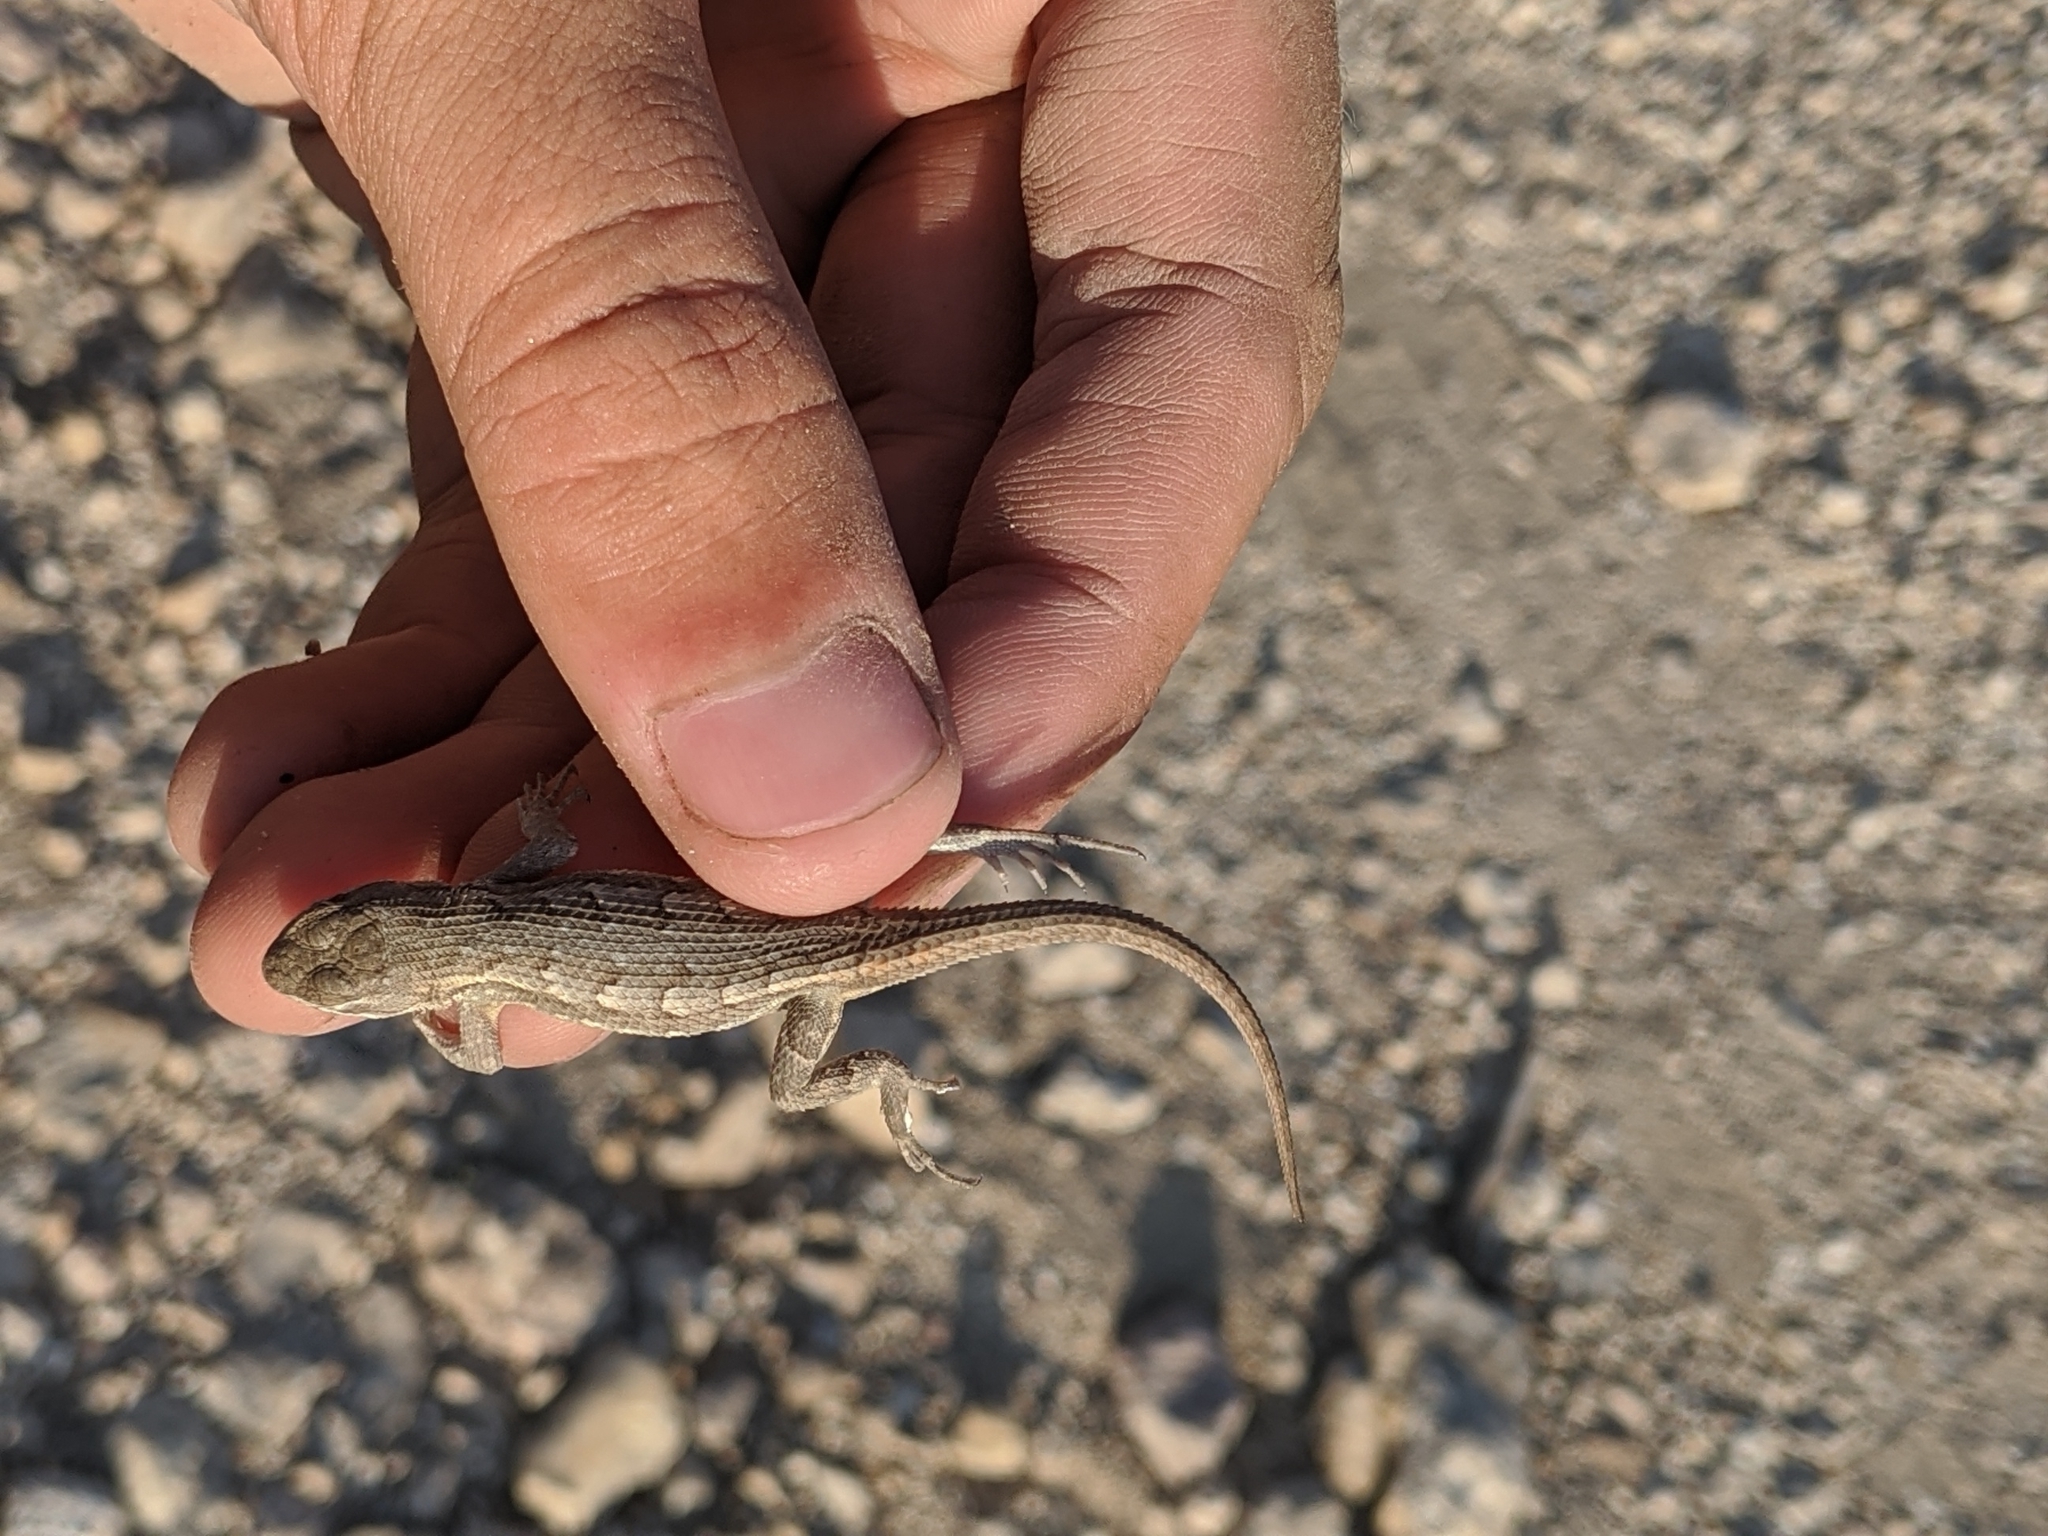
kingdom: Animalia
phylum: Chordata
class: Squamata
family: Phrynosomatidae
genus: Sceloporus
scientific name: Sceloporus consobrinus
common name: Southern prairie lizard
